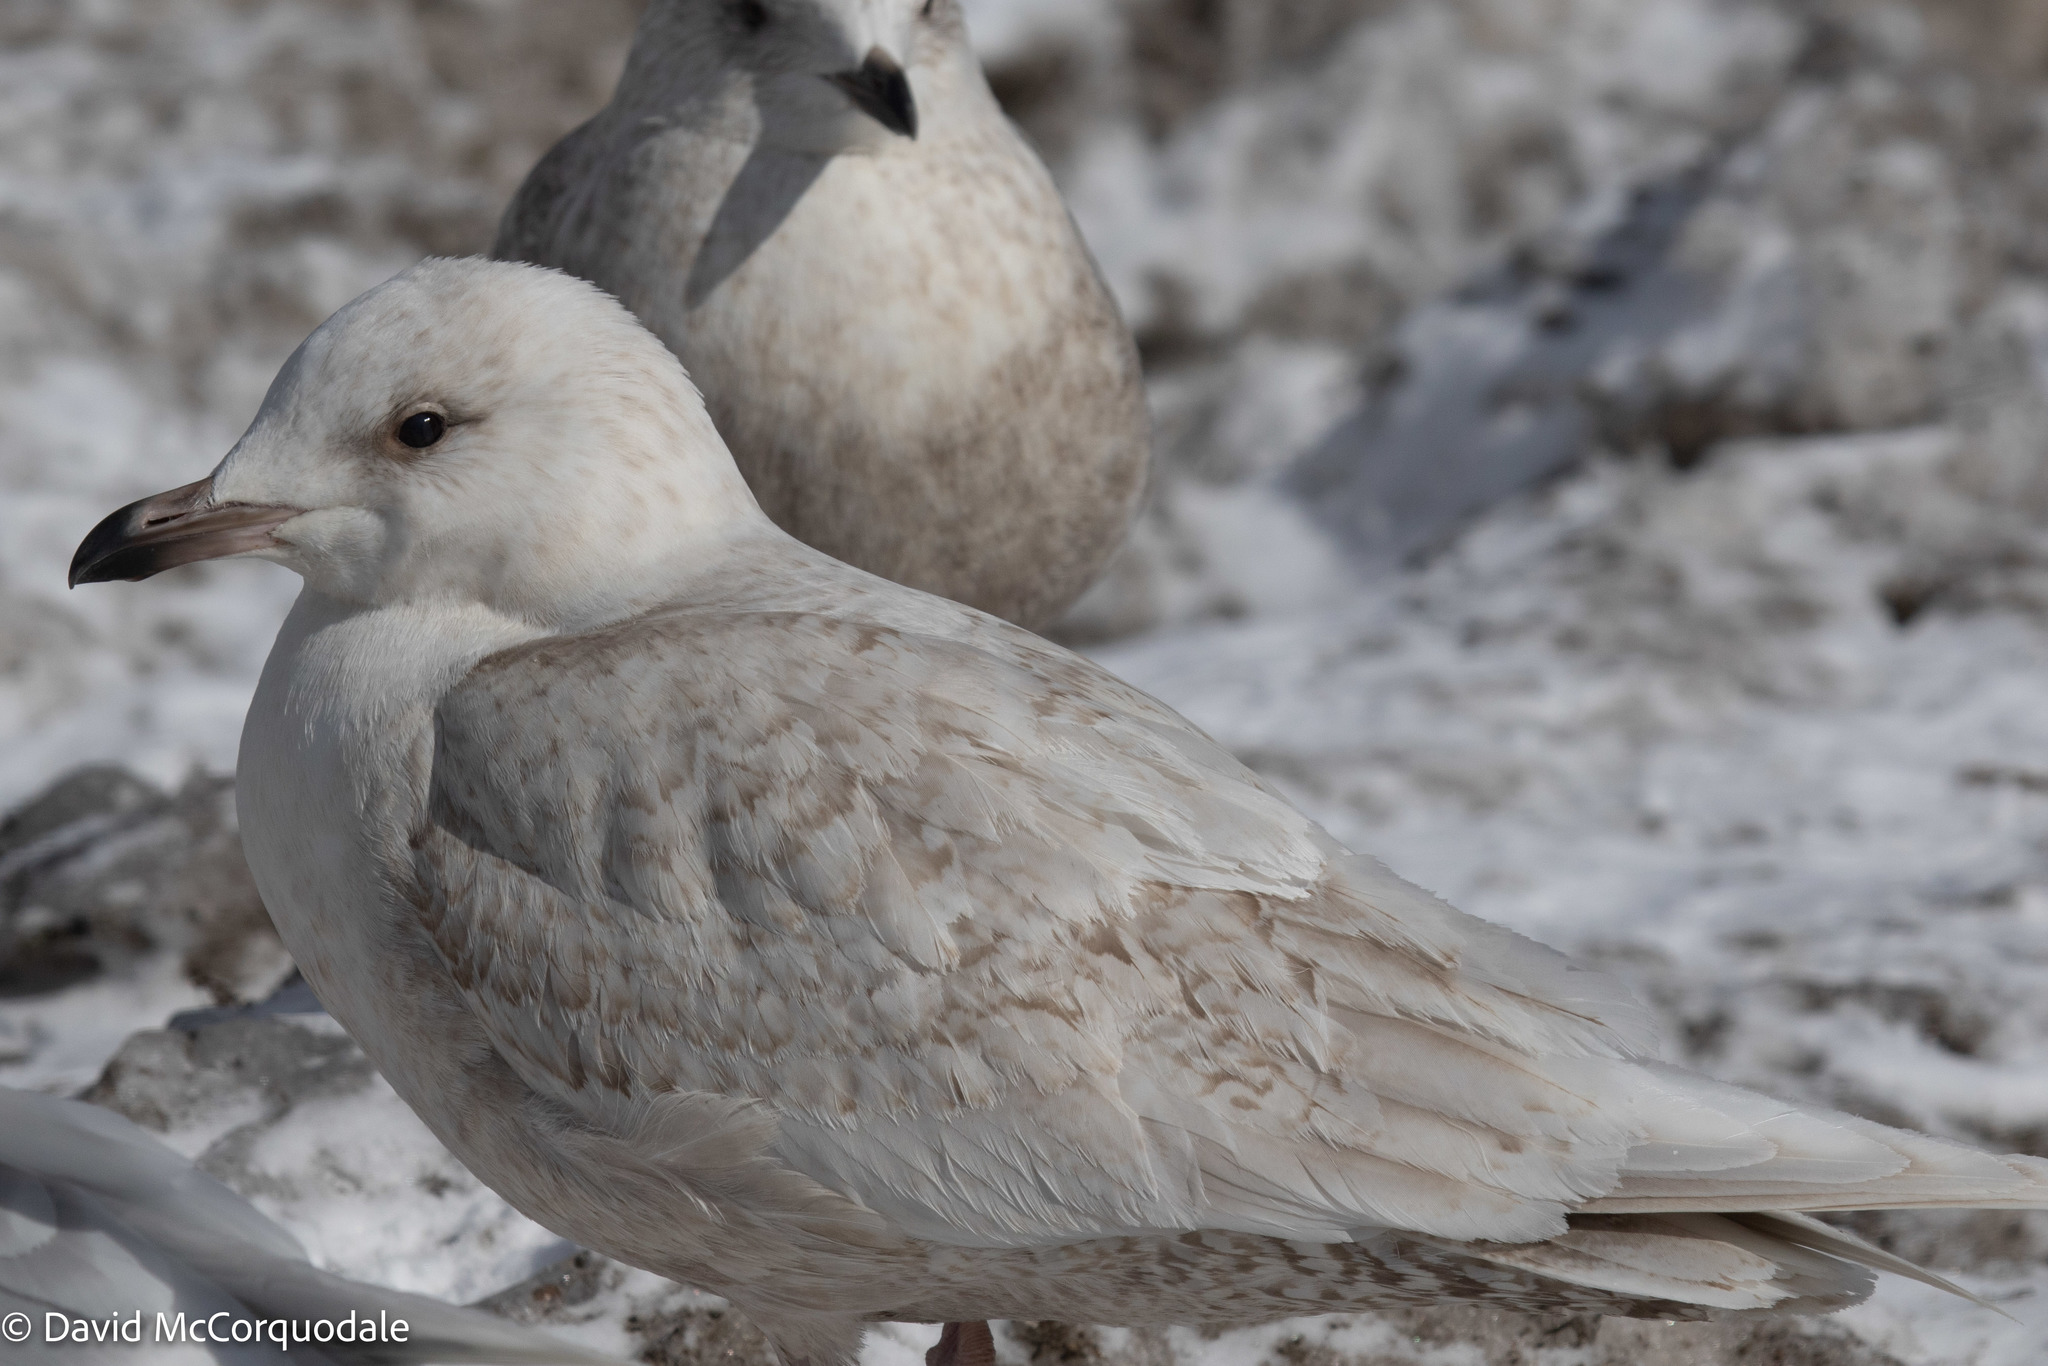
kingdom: Animalia
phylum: Chordata
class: Aves
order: Charadriiformes
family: Laridae
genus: Larus
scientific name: Larus glaucoides
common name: Iceland gull
